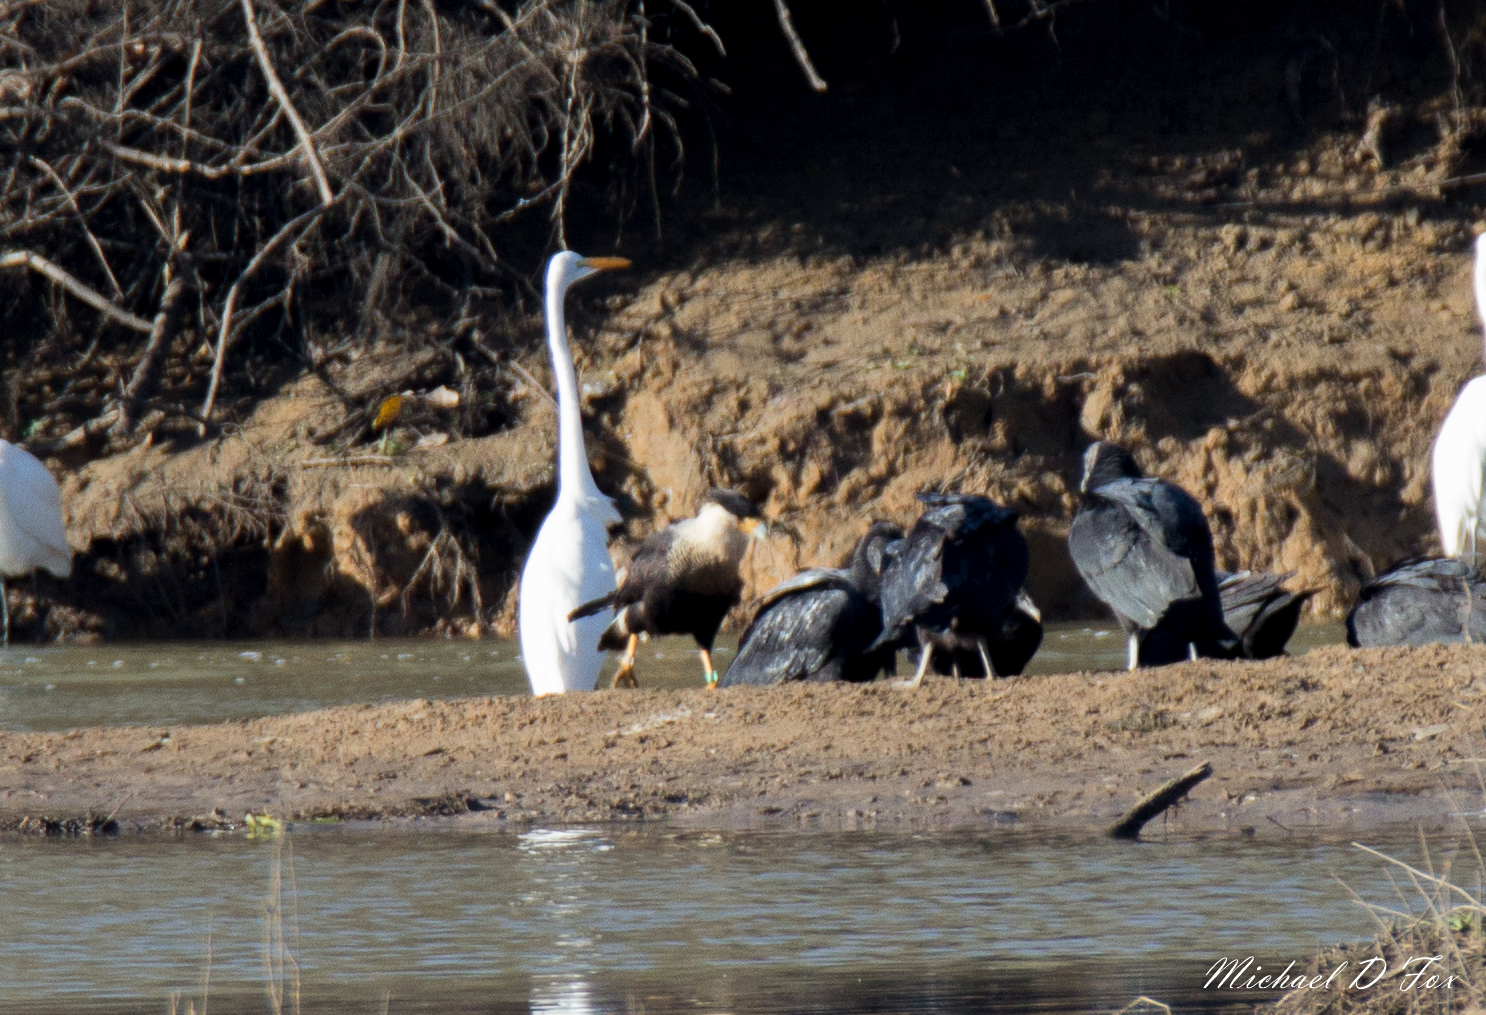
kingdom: Animalia
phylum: Chordata
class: Aves
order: Falconiformes
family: Falconidae
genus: Caracara
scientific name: Caracara plancus
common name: Southern caracara
